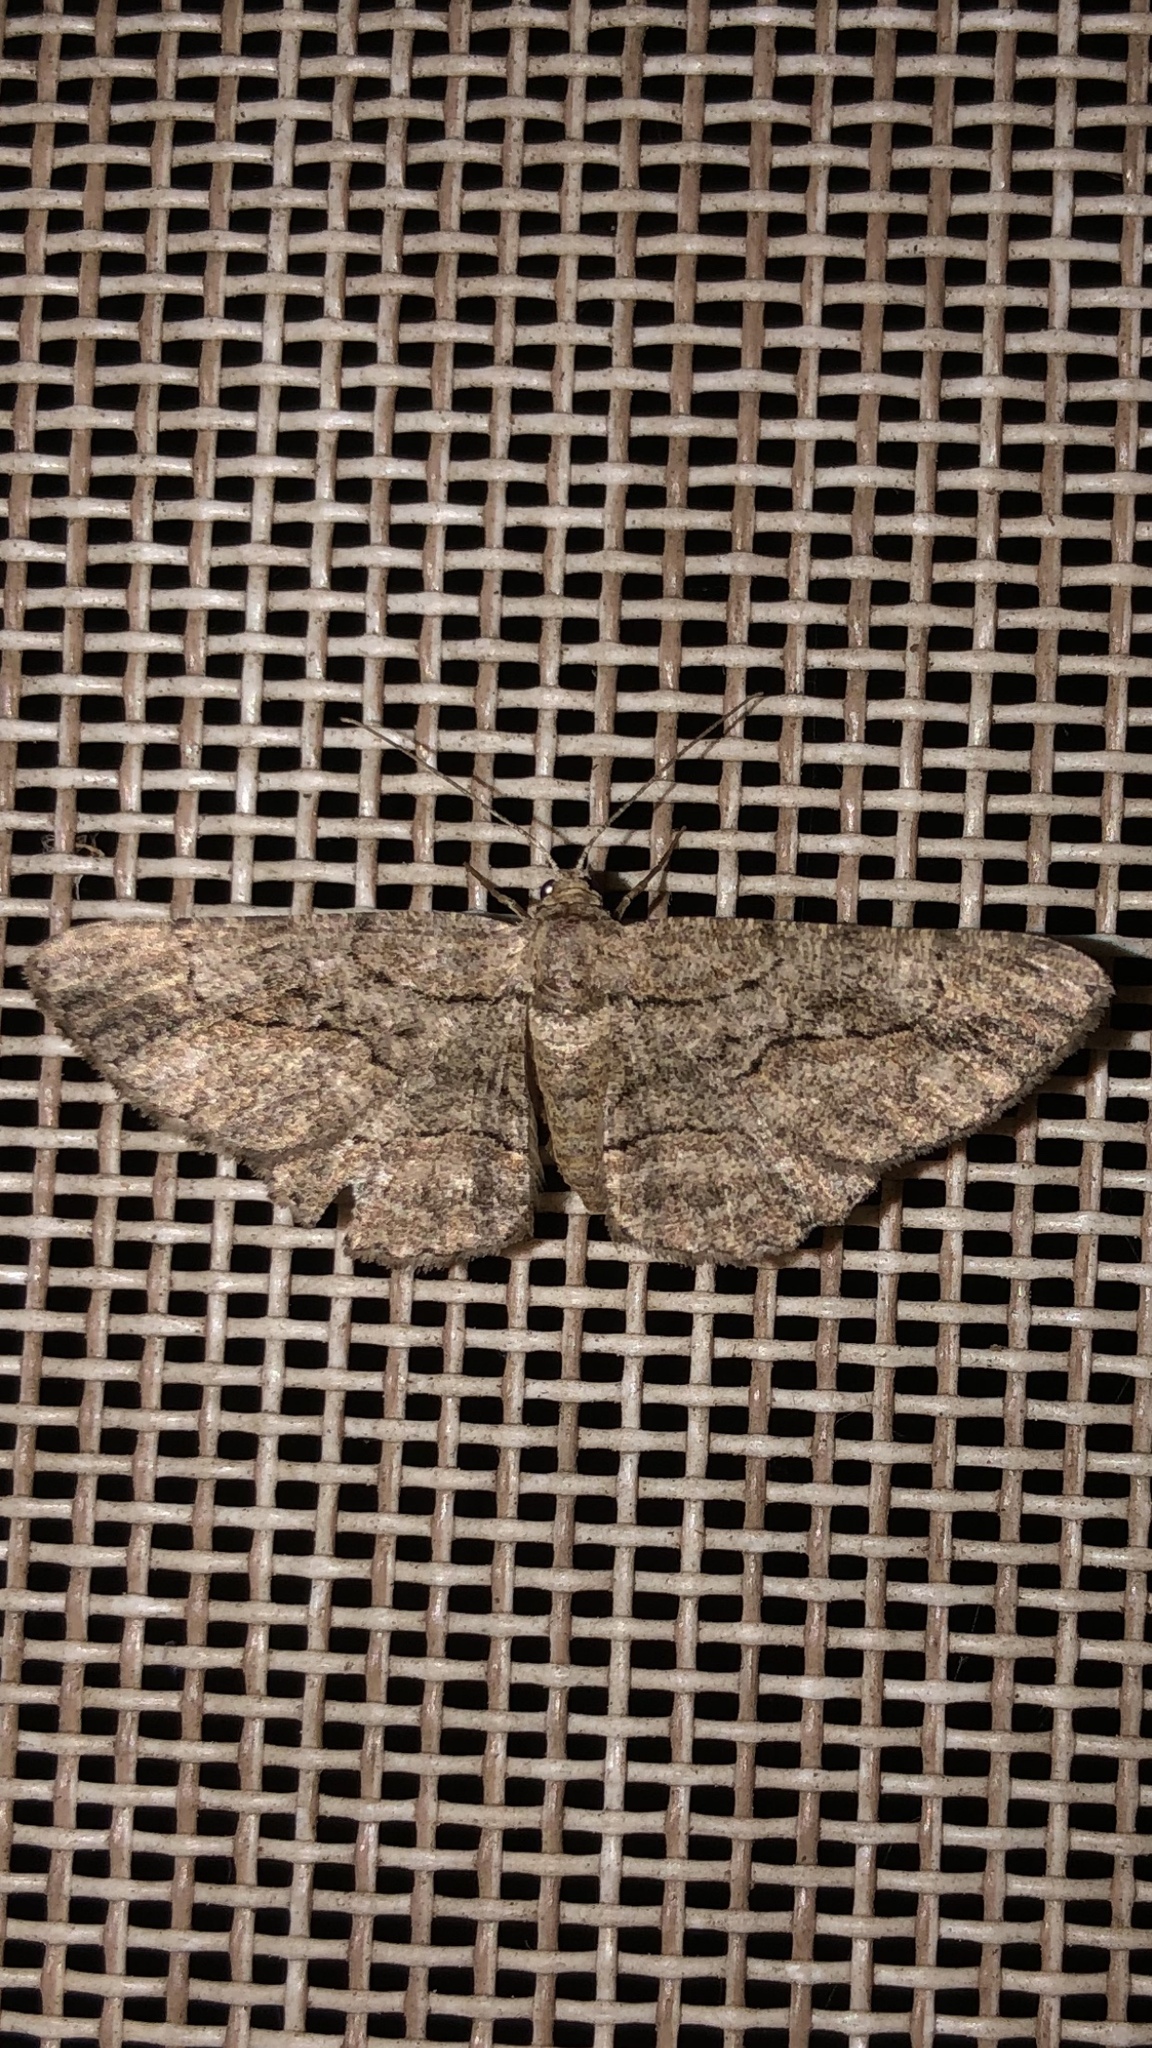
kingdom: Animalia
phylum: Arthropoda
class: Insecta
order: Lepidoptera
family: Geometridae
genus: Anavitrinella
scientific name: Anavitrinella pampinaria
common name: Common gray
